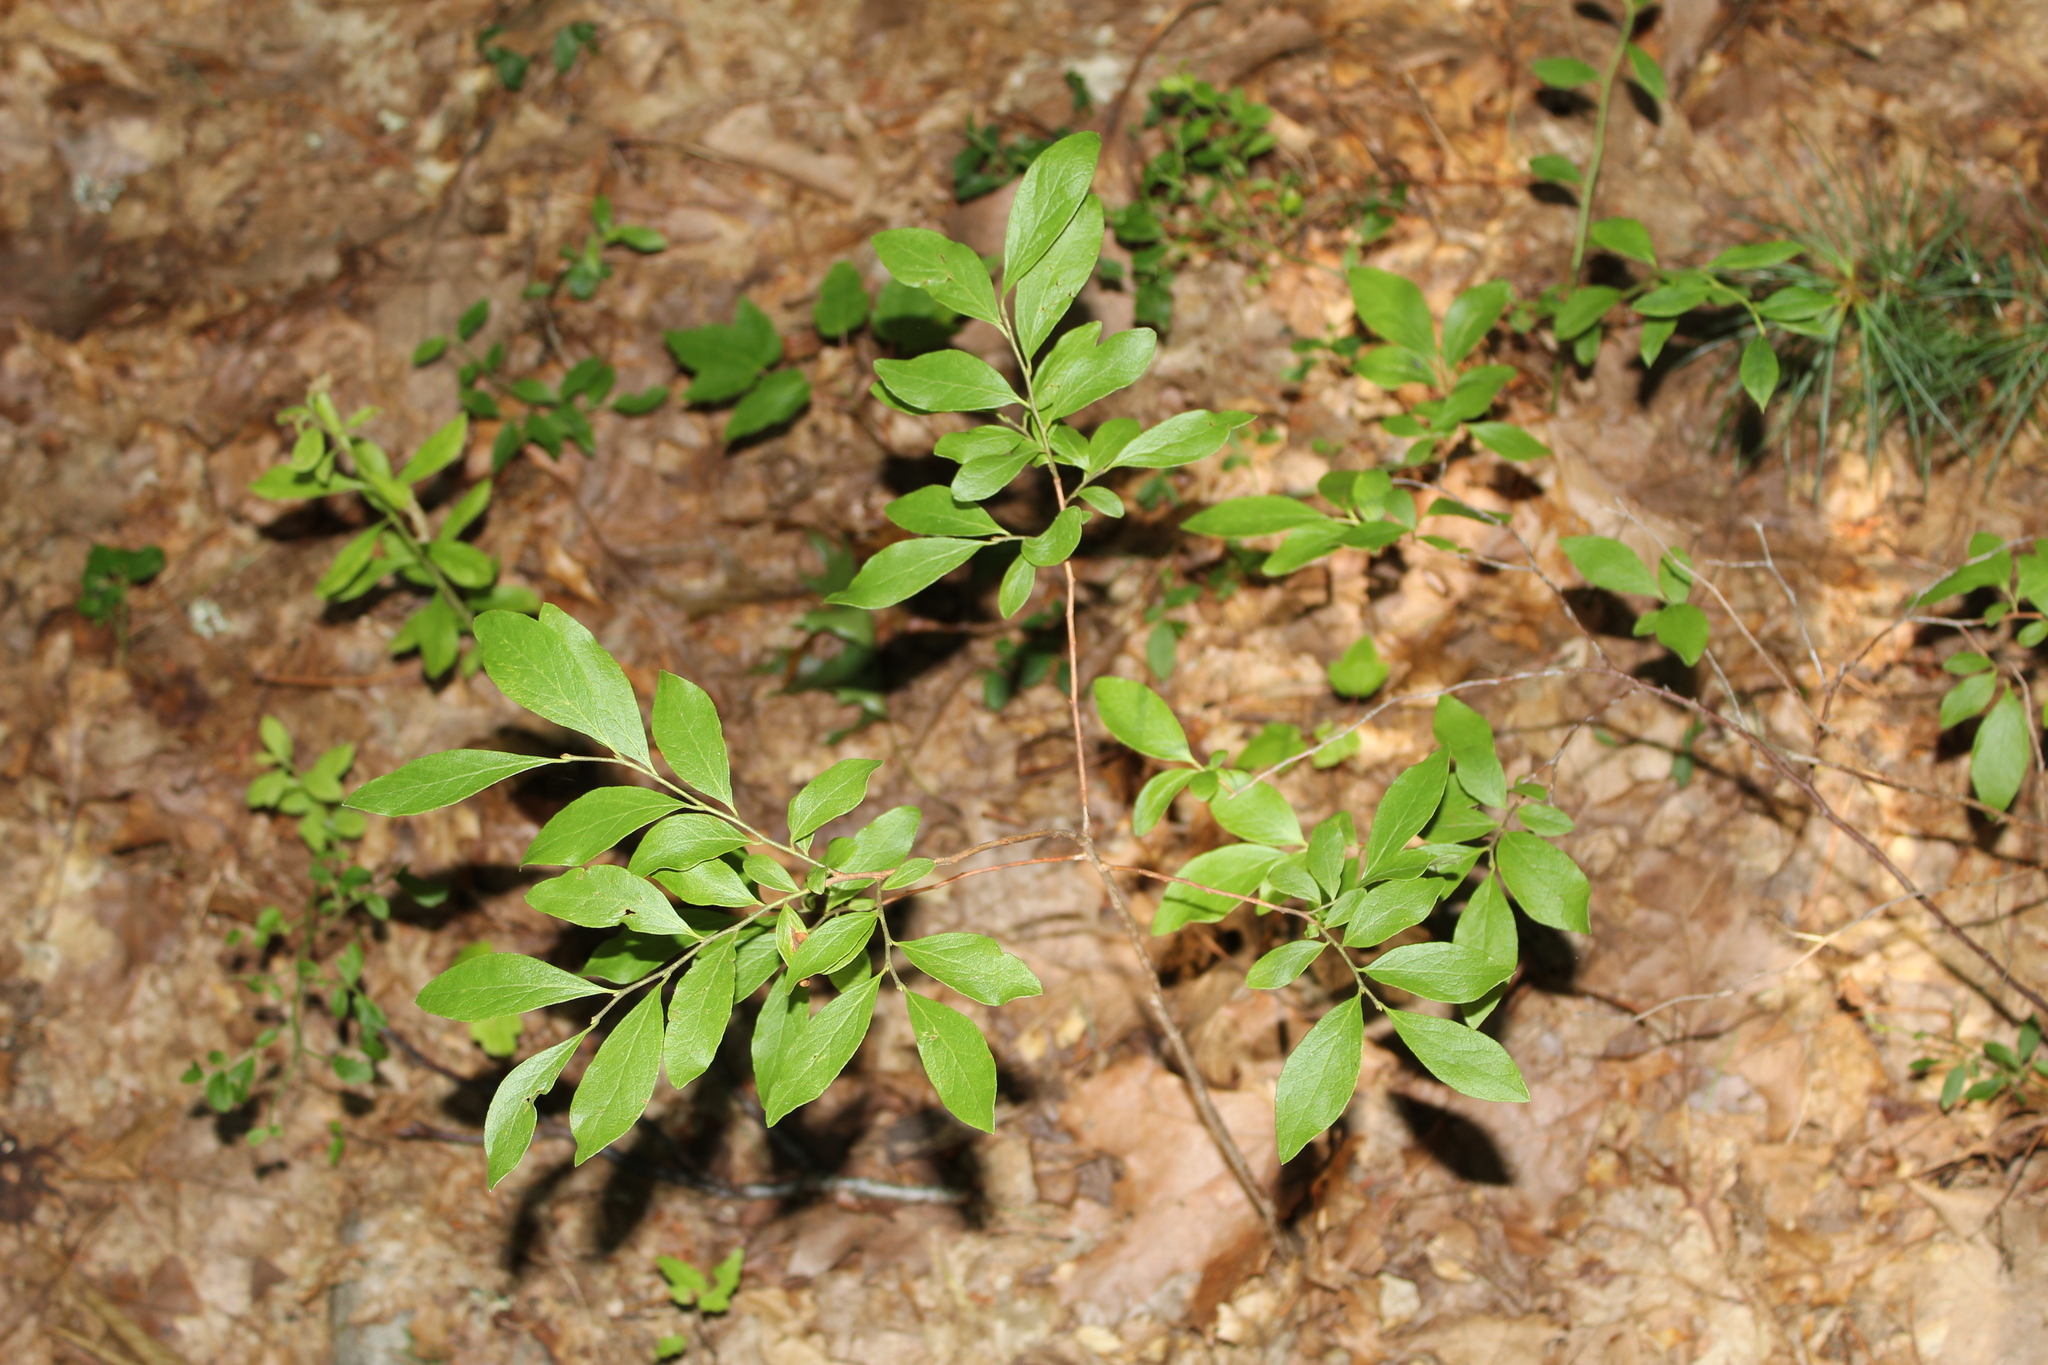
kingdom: Plantae
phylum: Tracheophyta
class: Magnoliopsida
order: Ericales
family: Ericaceae
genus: Gaylussacia
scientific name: Gaylussacia baccata
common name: Black huckleberry
